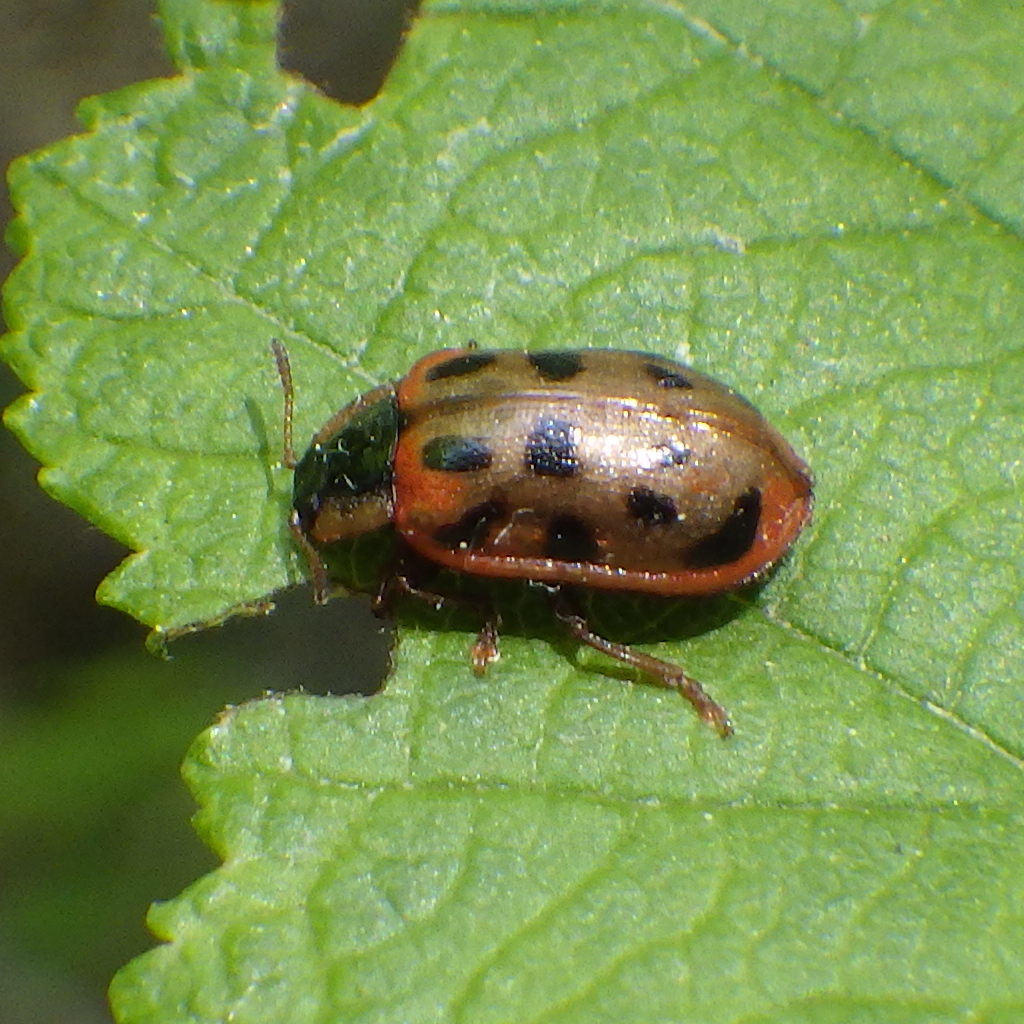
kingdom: Animalia
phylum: Arthropoda
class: Insecta
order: Coleoptera
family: Chrysomelidae
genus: Chrysomela
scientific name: Chrysomela mainensis
